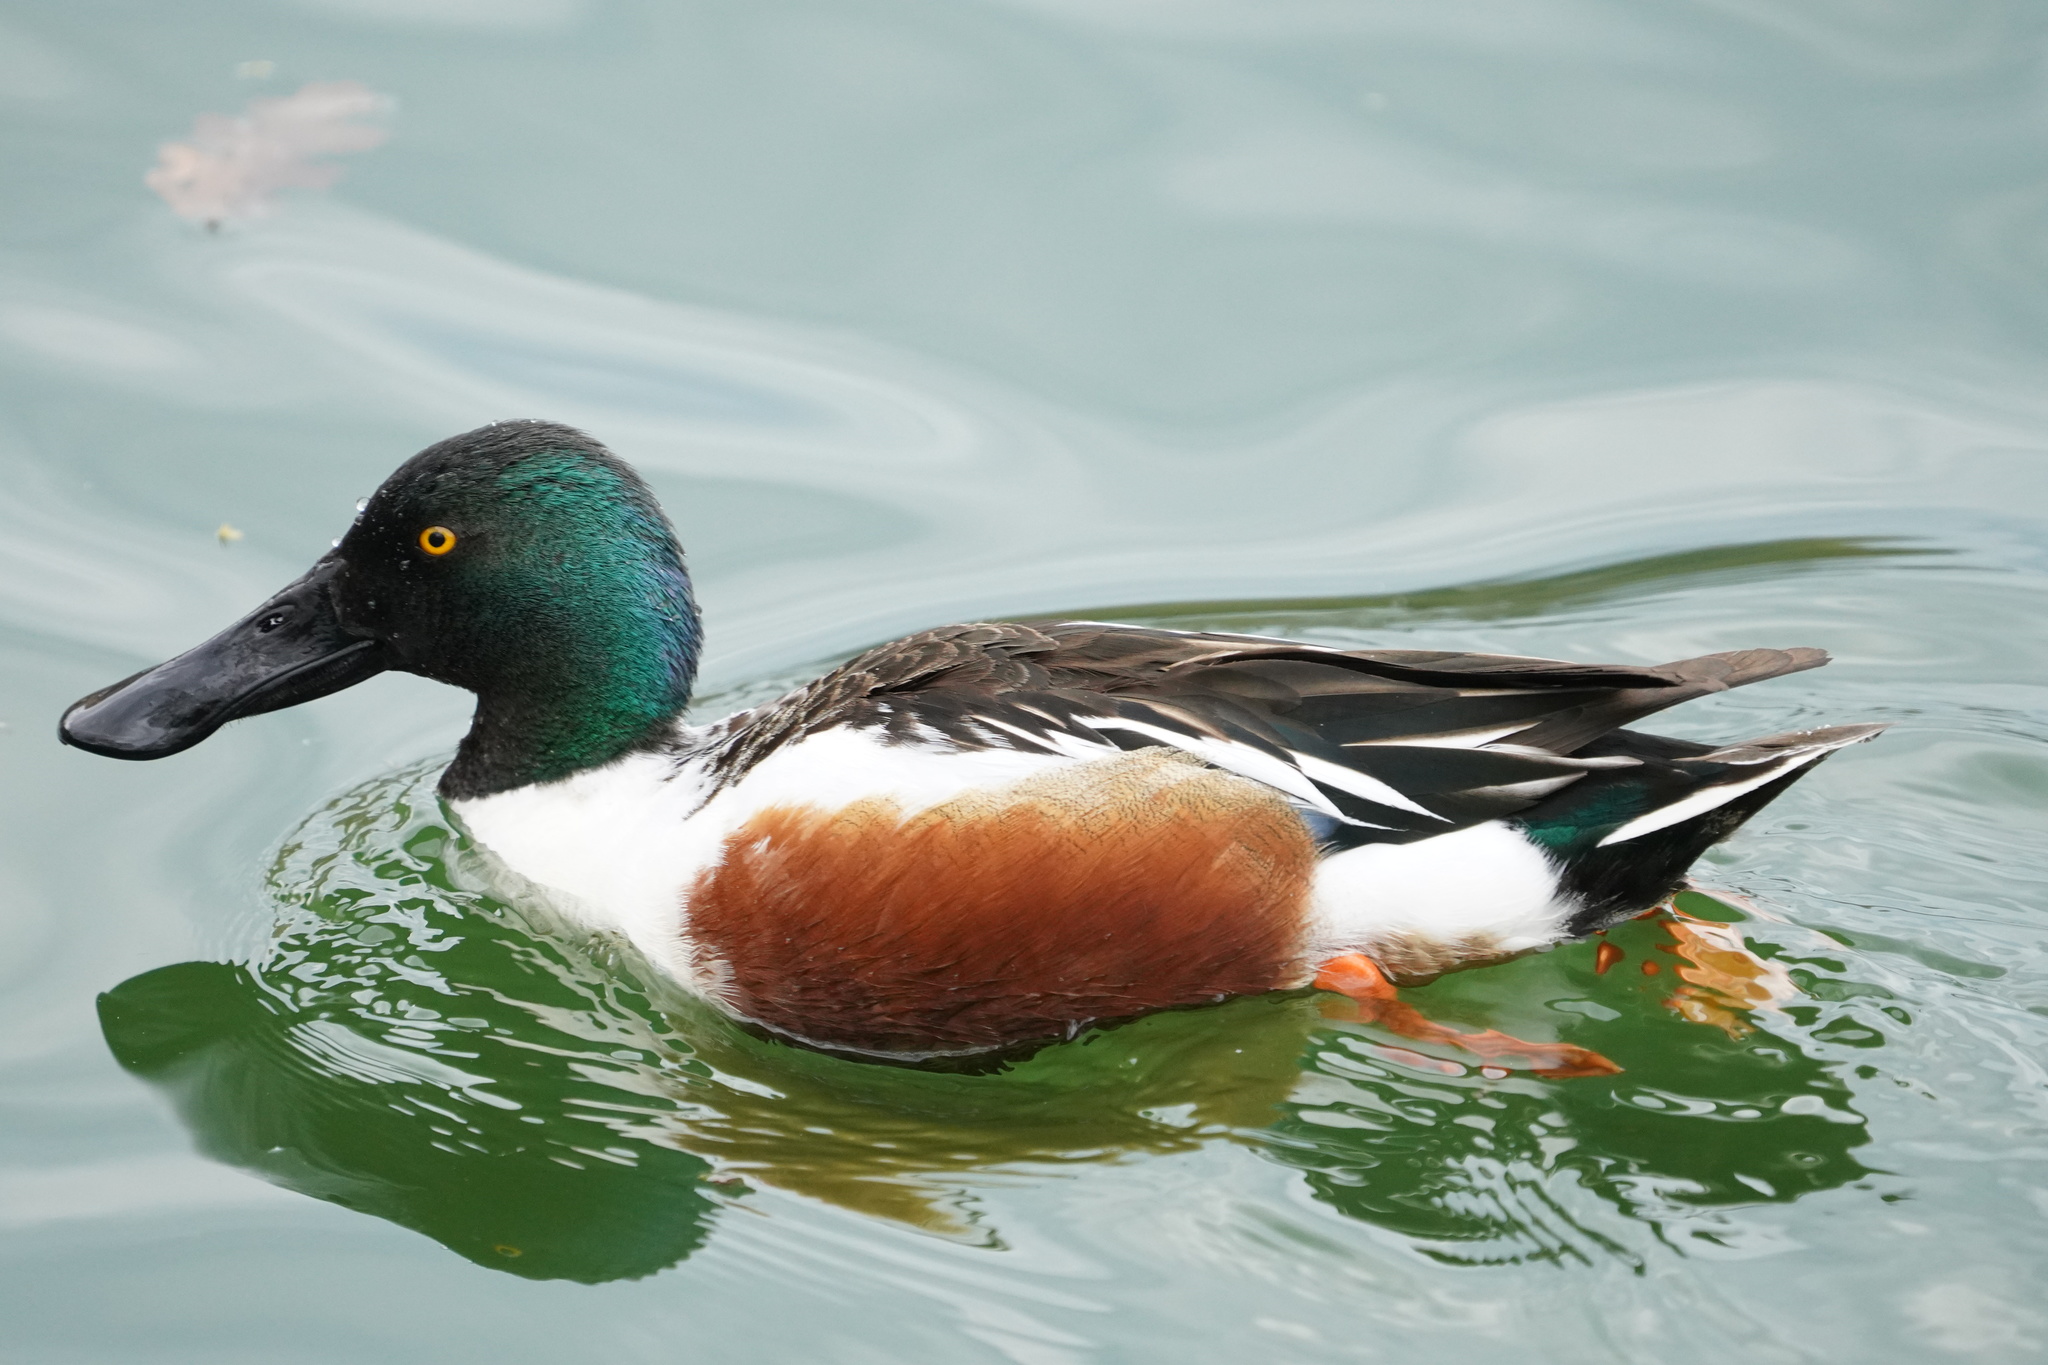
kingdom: Animalia
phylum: Chordata
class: Aves
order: Anseriformes
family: Anatidae
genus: Spatula
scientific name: Spatula clypeata
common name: Northern shoveler
